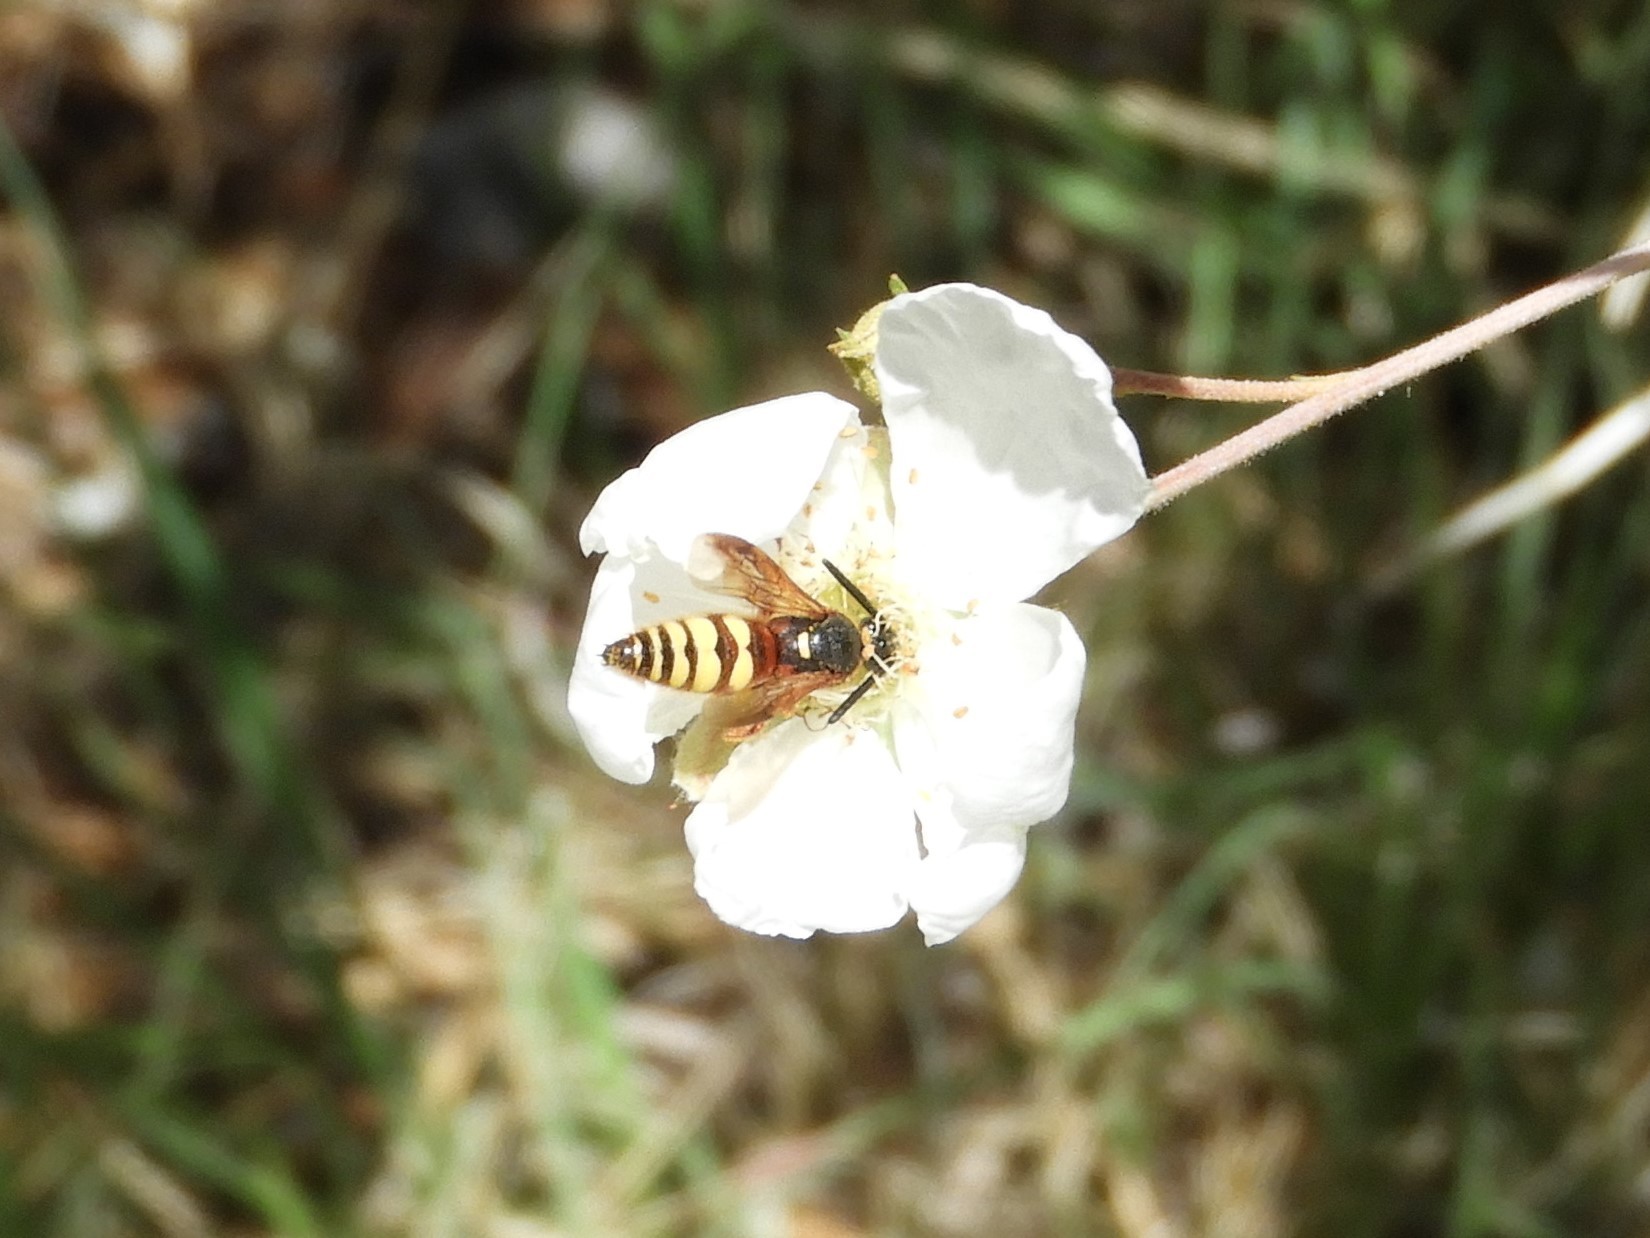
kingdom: Animalia
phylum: Arthropoda
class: Insecta
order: Hymenoptera
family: Scoliidae
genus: Scolia
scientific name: Scolia nobilitata
